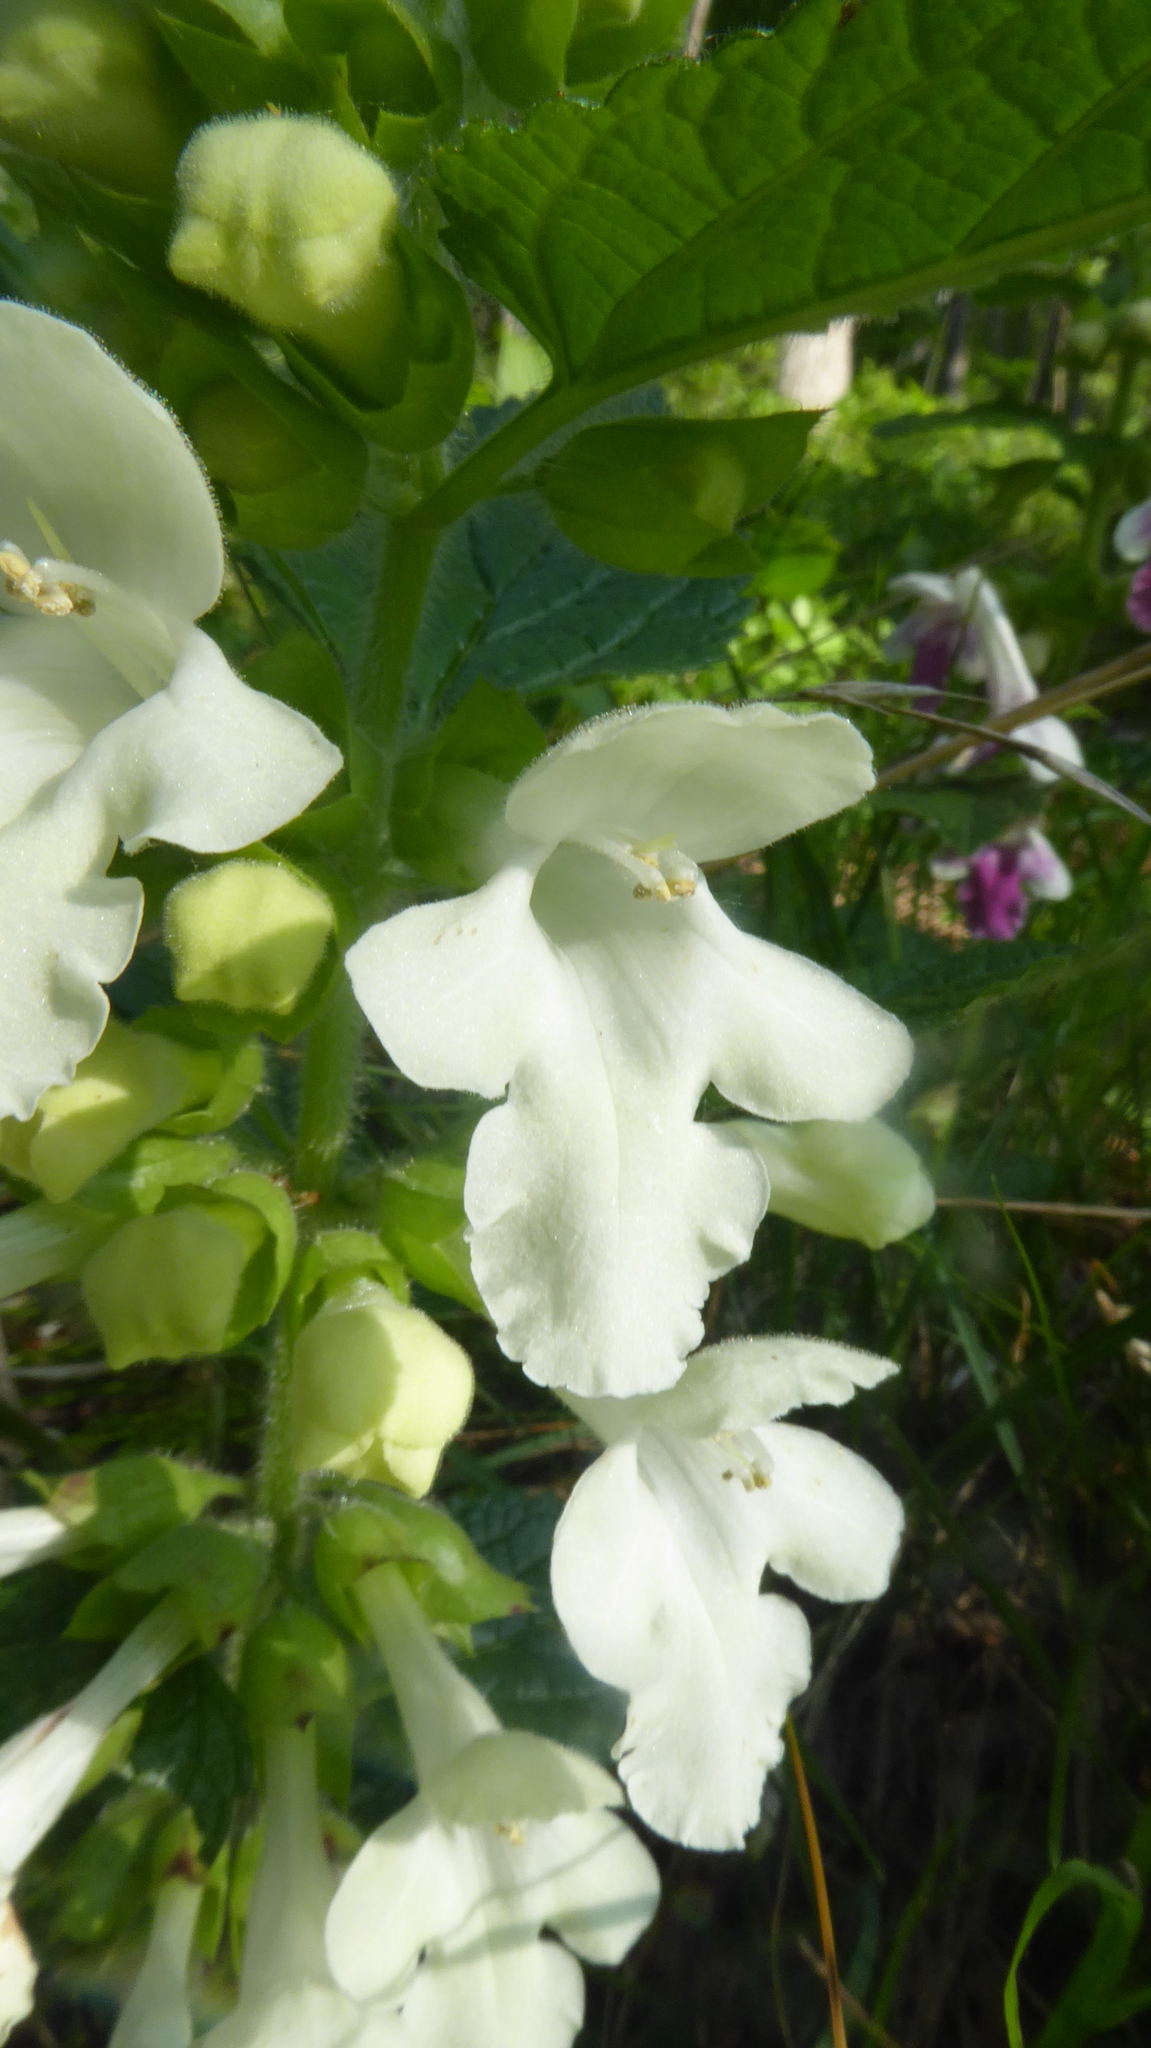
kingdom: Plantae
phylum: Tracheophyta
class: Magnoliopsida
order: Lamiales
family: Lamiaceae
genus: Melittis
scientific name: Melittis melissophyllum
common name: Bastard balm
